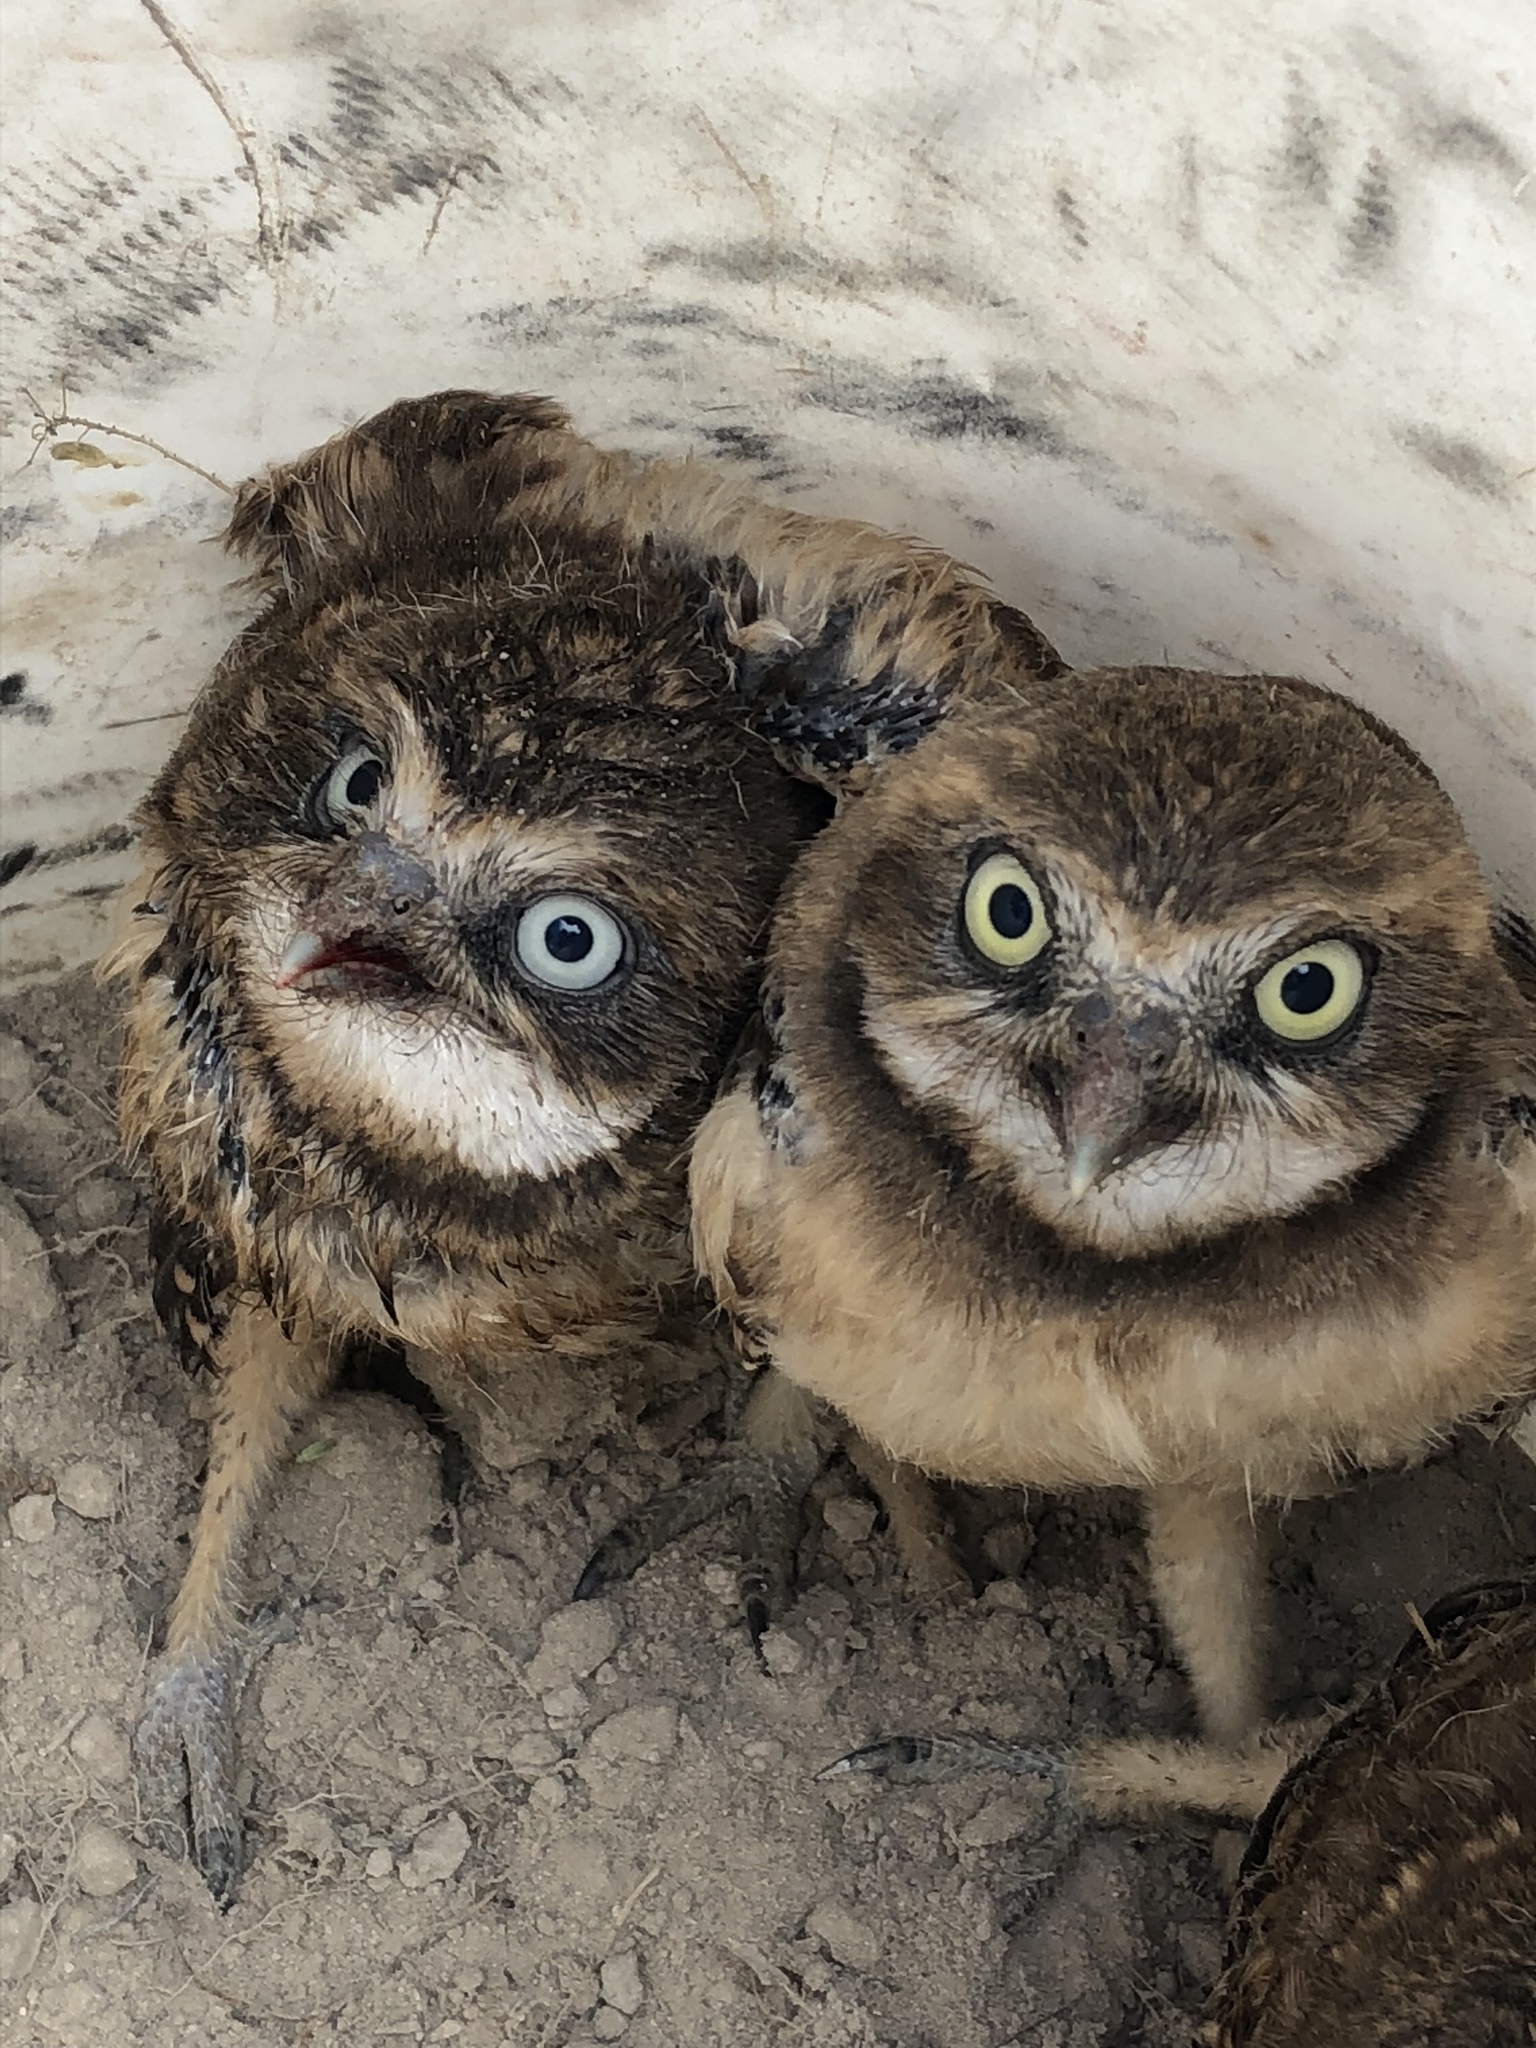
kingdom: Animalia
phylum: Chordata
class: Aves
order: Strigiformes
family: Strigidae
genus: Athene
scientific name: Athene cunicularia
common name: Burrowing owl
